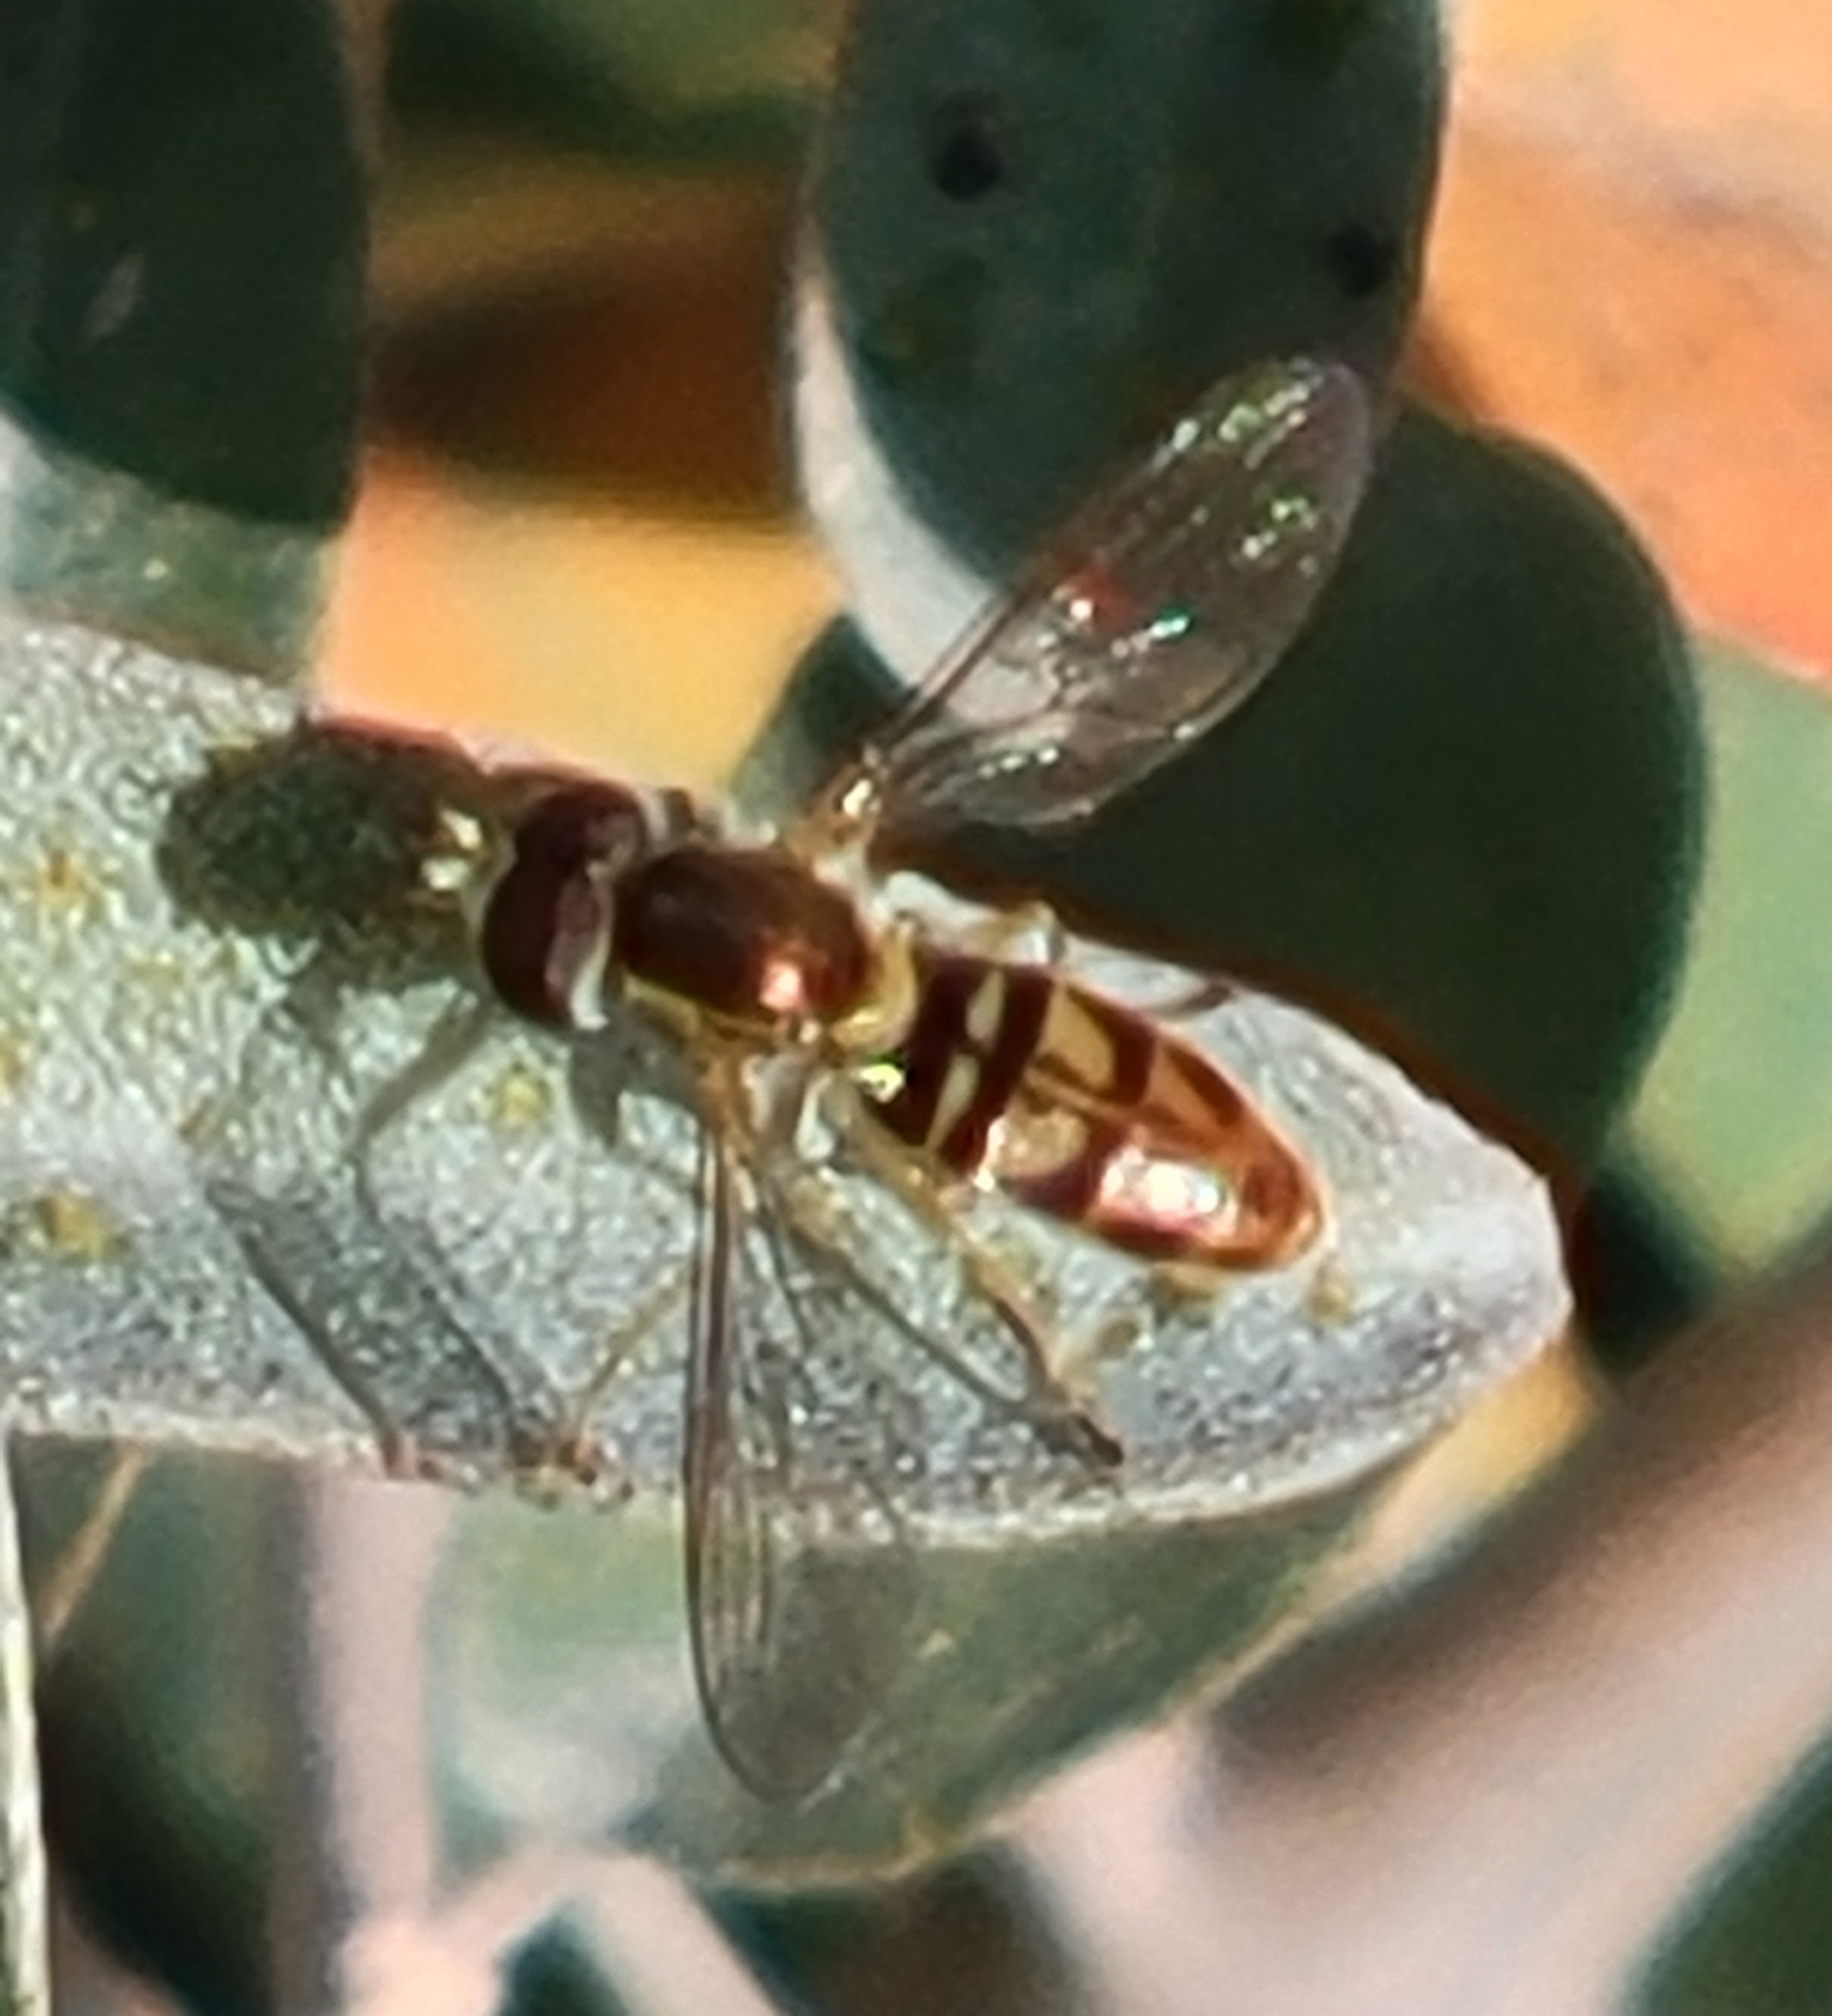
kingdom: Animalia
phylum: Arthropoda
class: Insecta
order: Diptera
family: Syrphidae
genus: Toxomerus
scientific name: Toxomerus marginatus
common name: Syrphid fly
